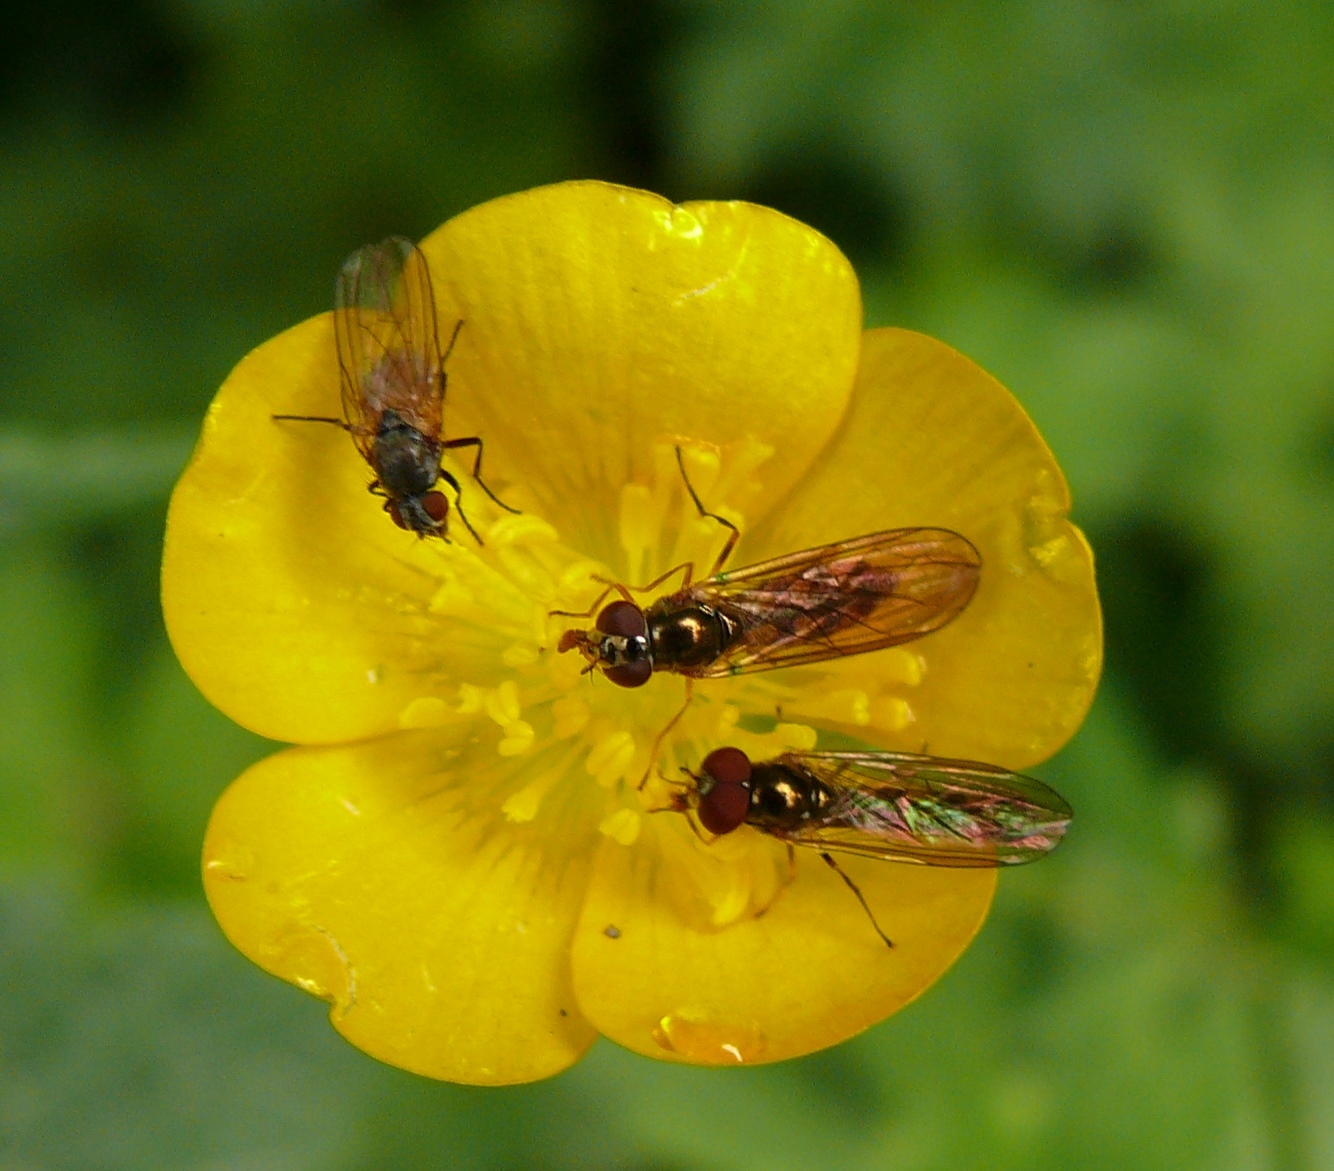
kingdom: Animalia
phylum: Arthropoda
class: Insecta
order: Diptera
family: Syrphidae
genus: Melanostoma
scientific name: Melanostoma mellina
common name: Hover fly
